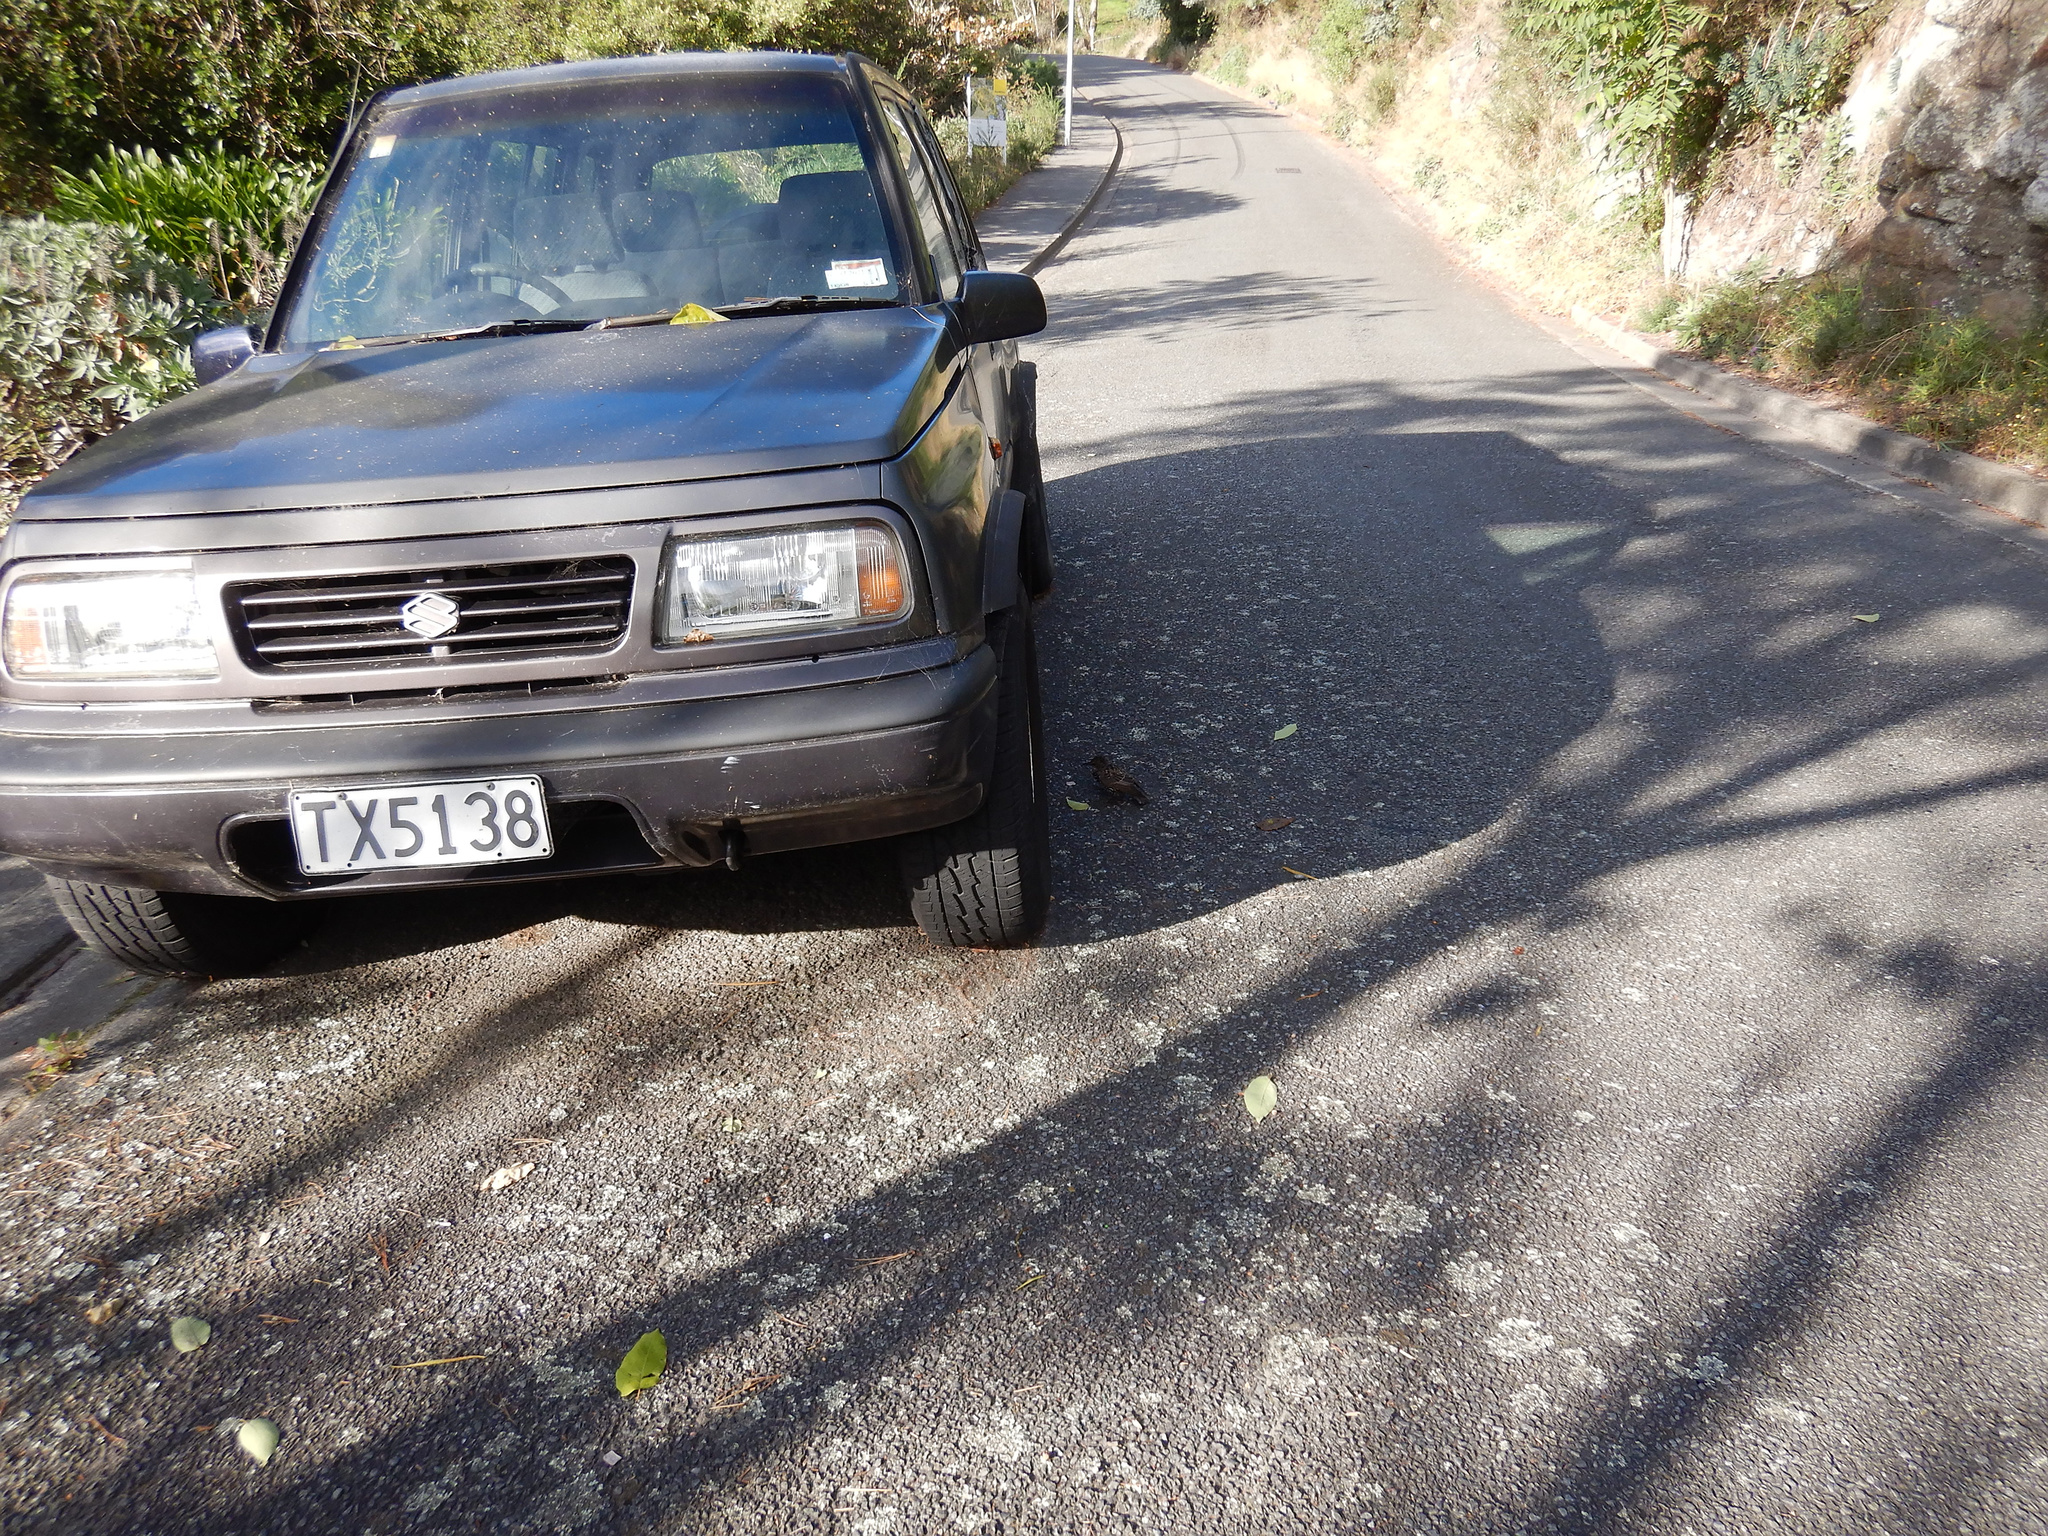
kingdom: Animalia
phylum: Chordata
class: Aves
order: Passeriformes
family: Sturnidae
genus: Sturnus
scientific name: Sturnus vulgaris
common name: Common starling
